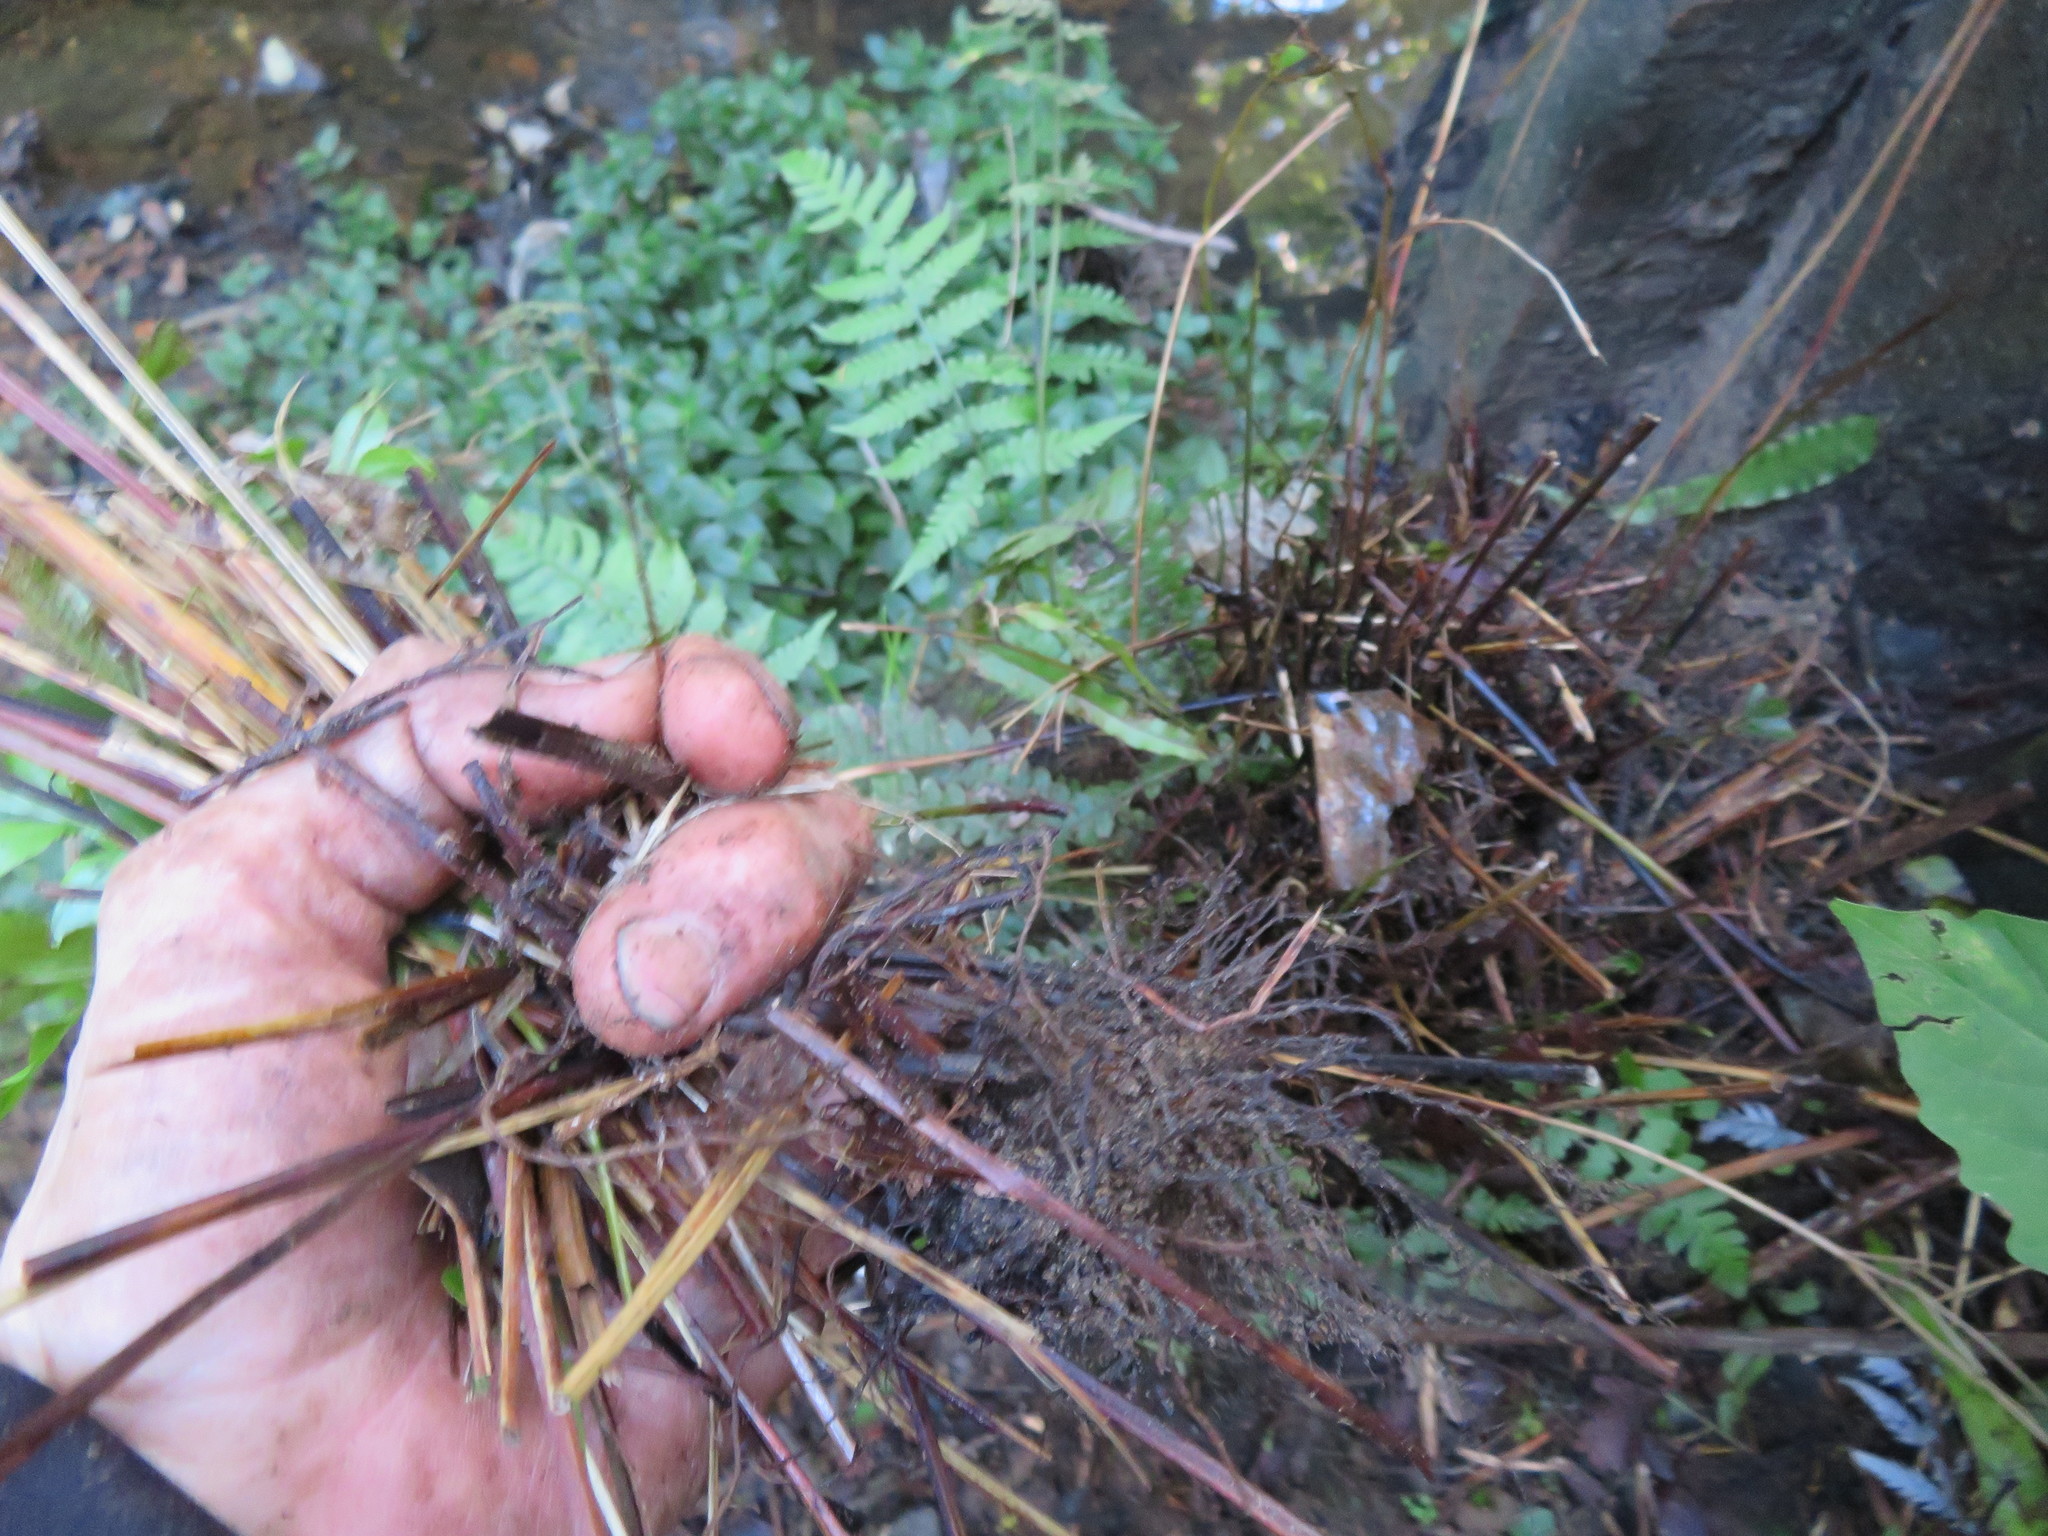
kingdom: Plantae
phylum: Tracheophyta
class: Polypodiopsida
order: Polypodiales
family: Pteridaceae
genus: Pteris
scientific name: Pteris cretica
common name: Ribbon fern
